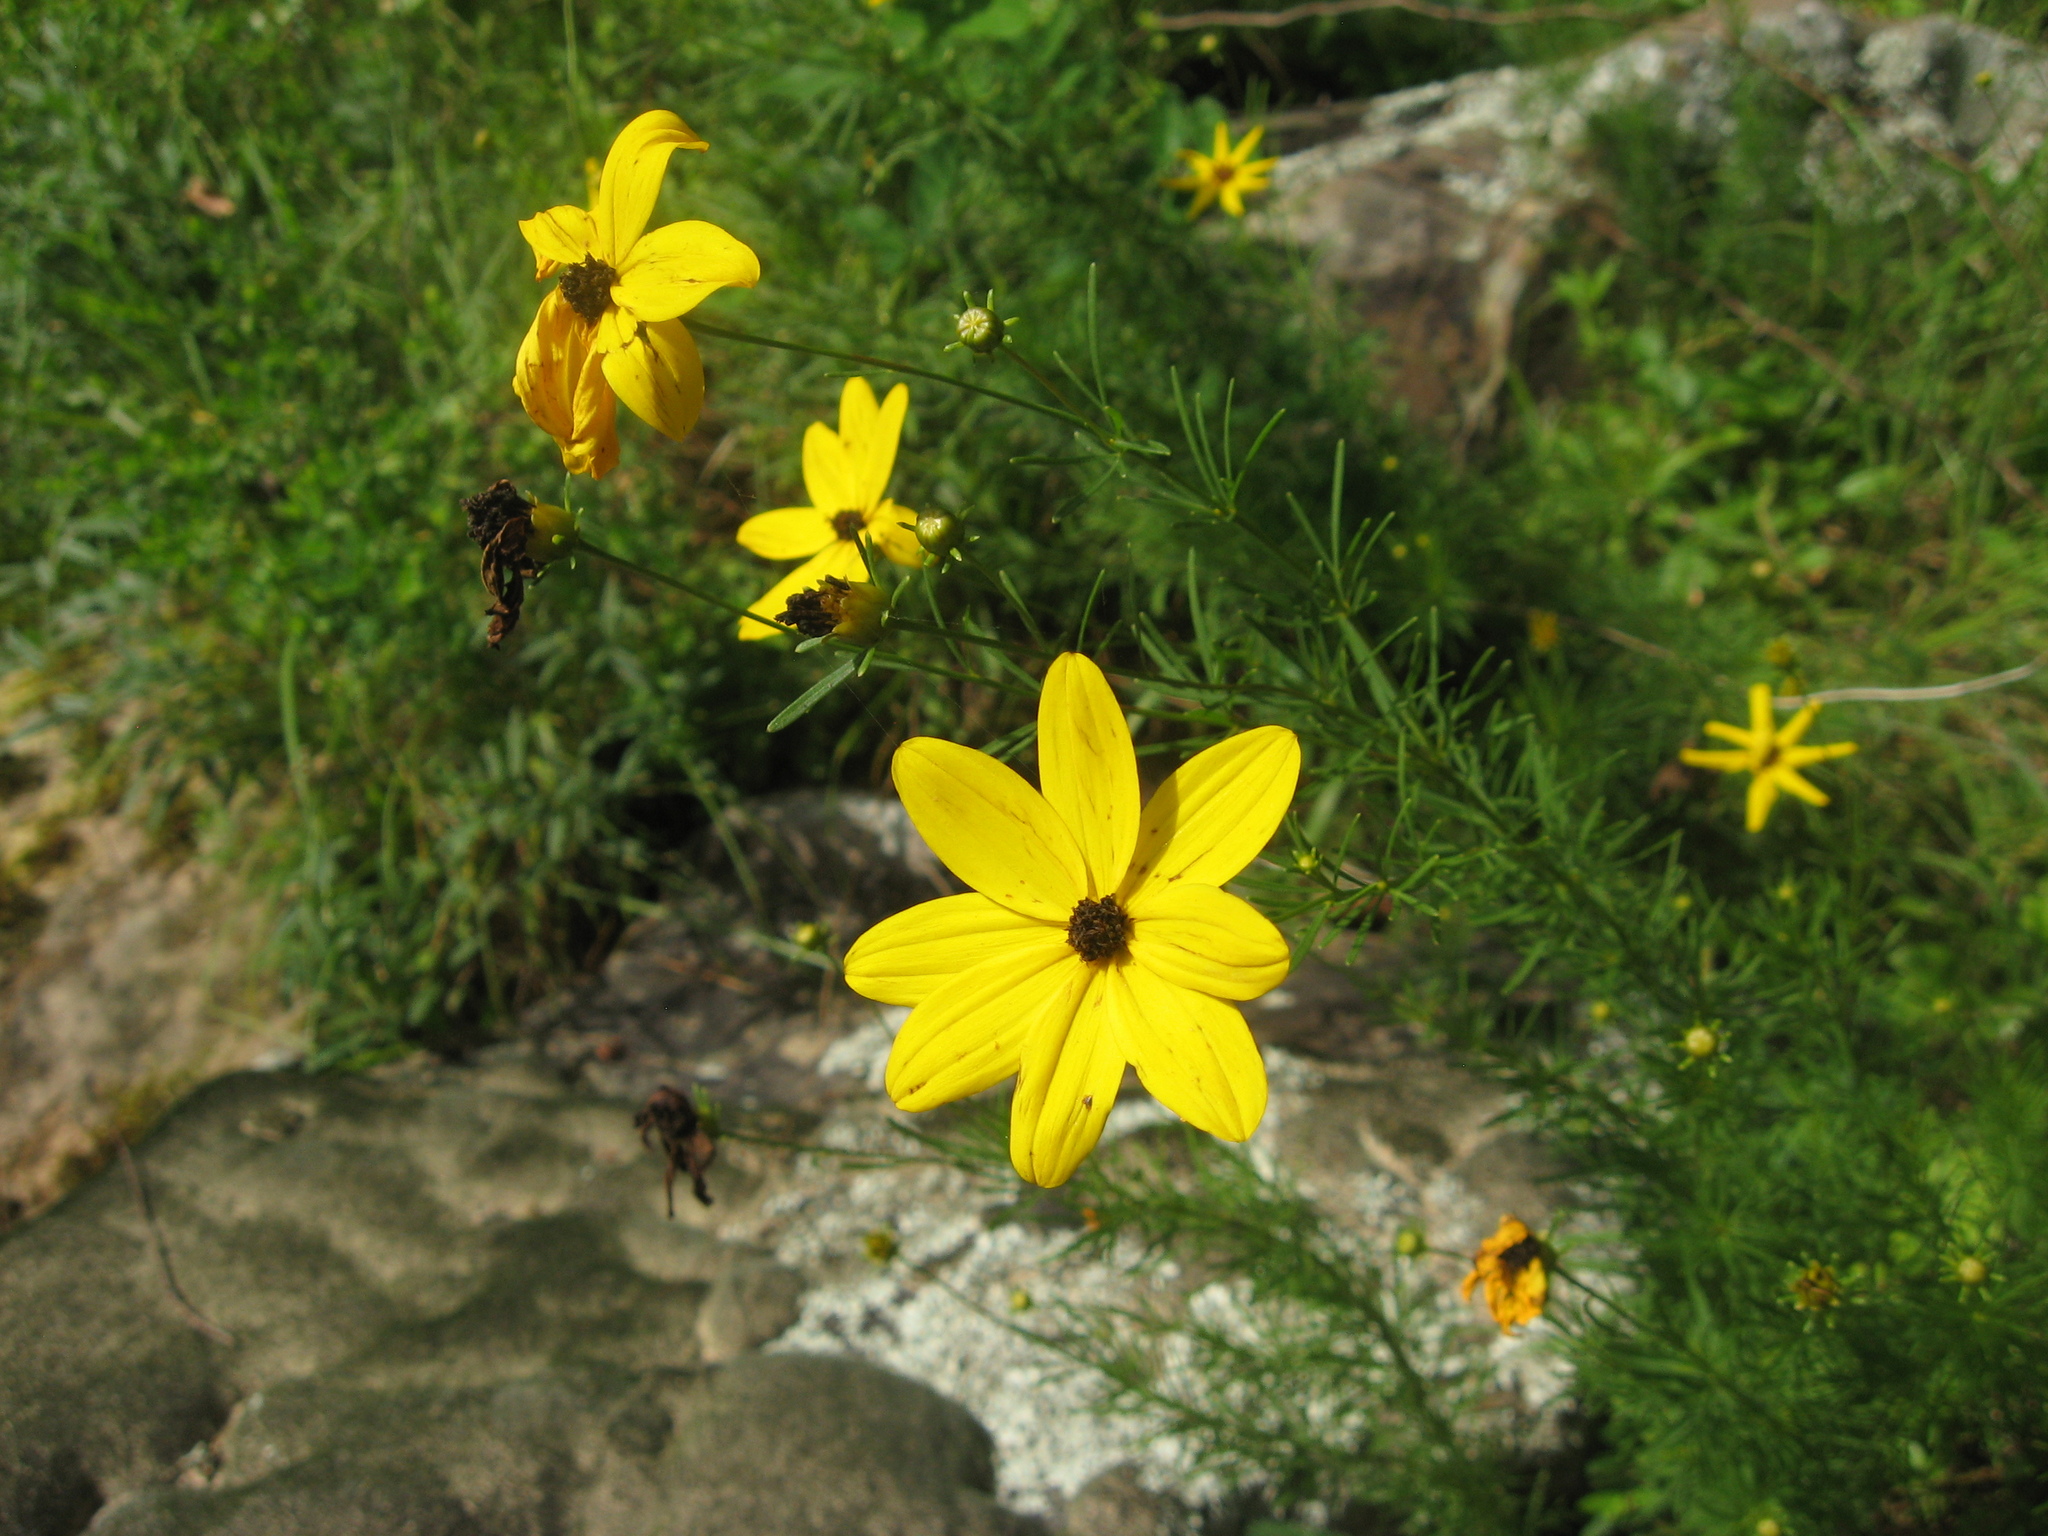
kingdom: Plantae
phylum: Tracheophyta
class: Magnoliopsida
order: Asterales
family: Asteraceae
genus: Coreopsis
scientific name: Coreopsis pulchra
